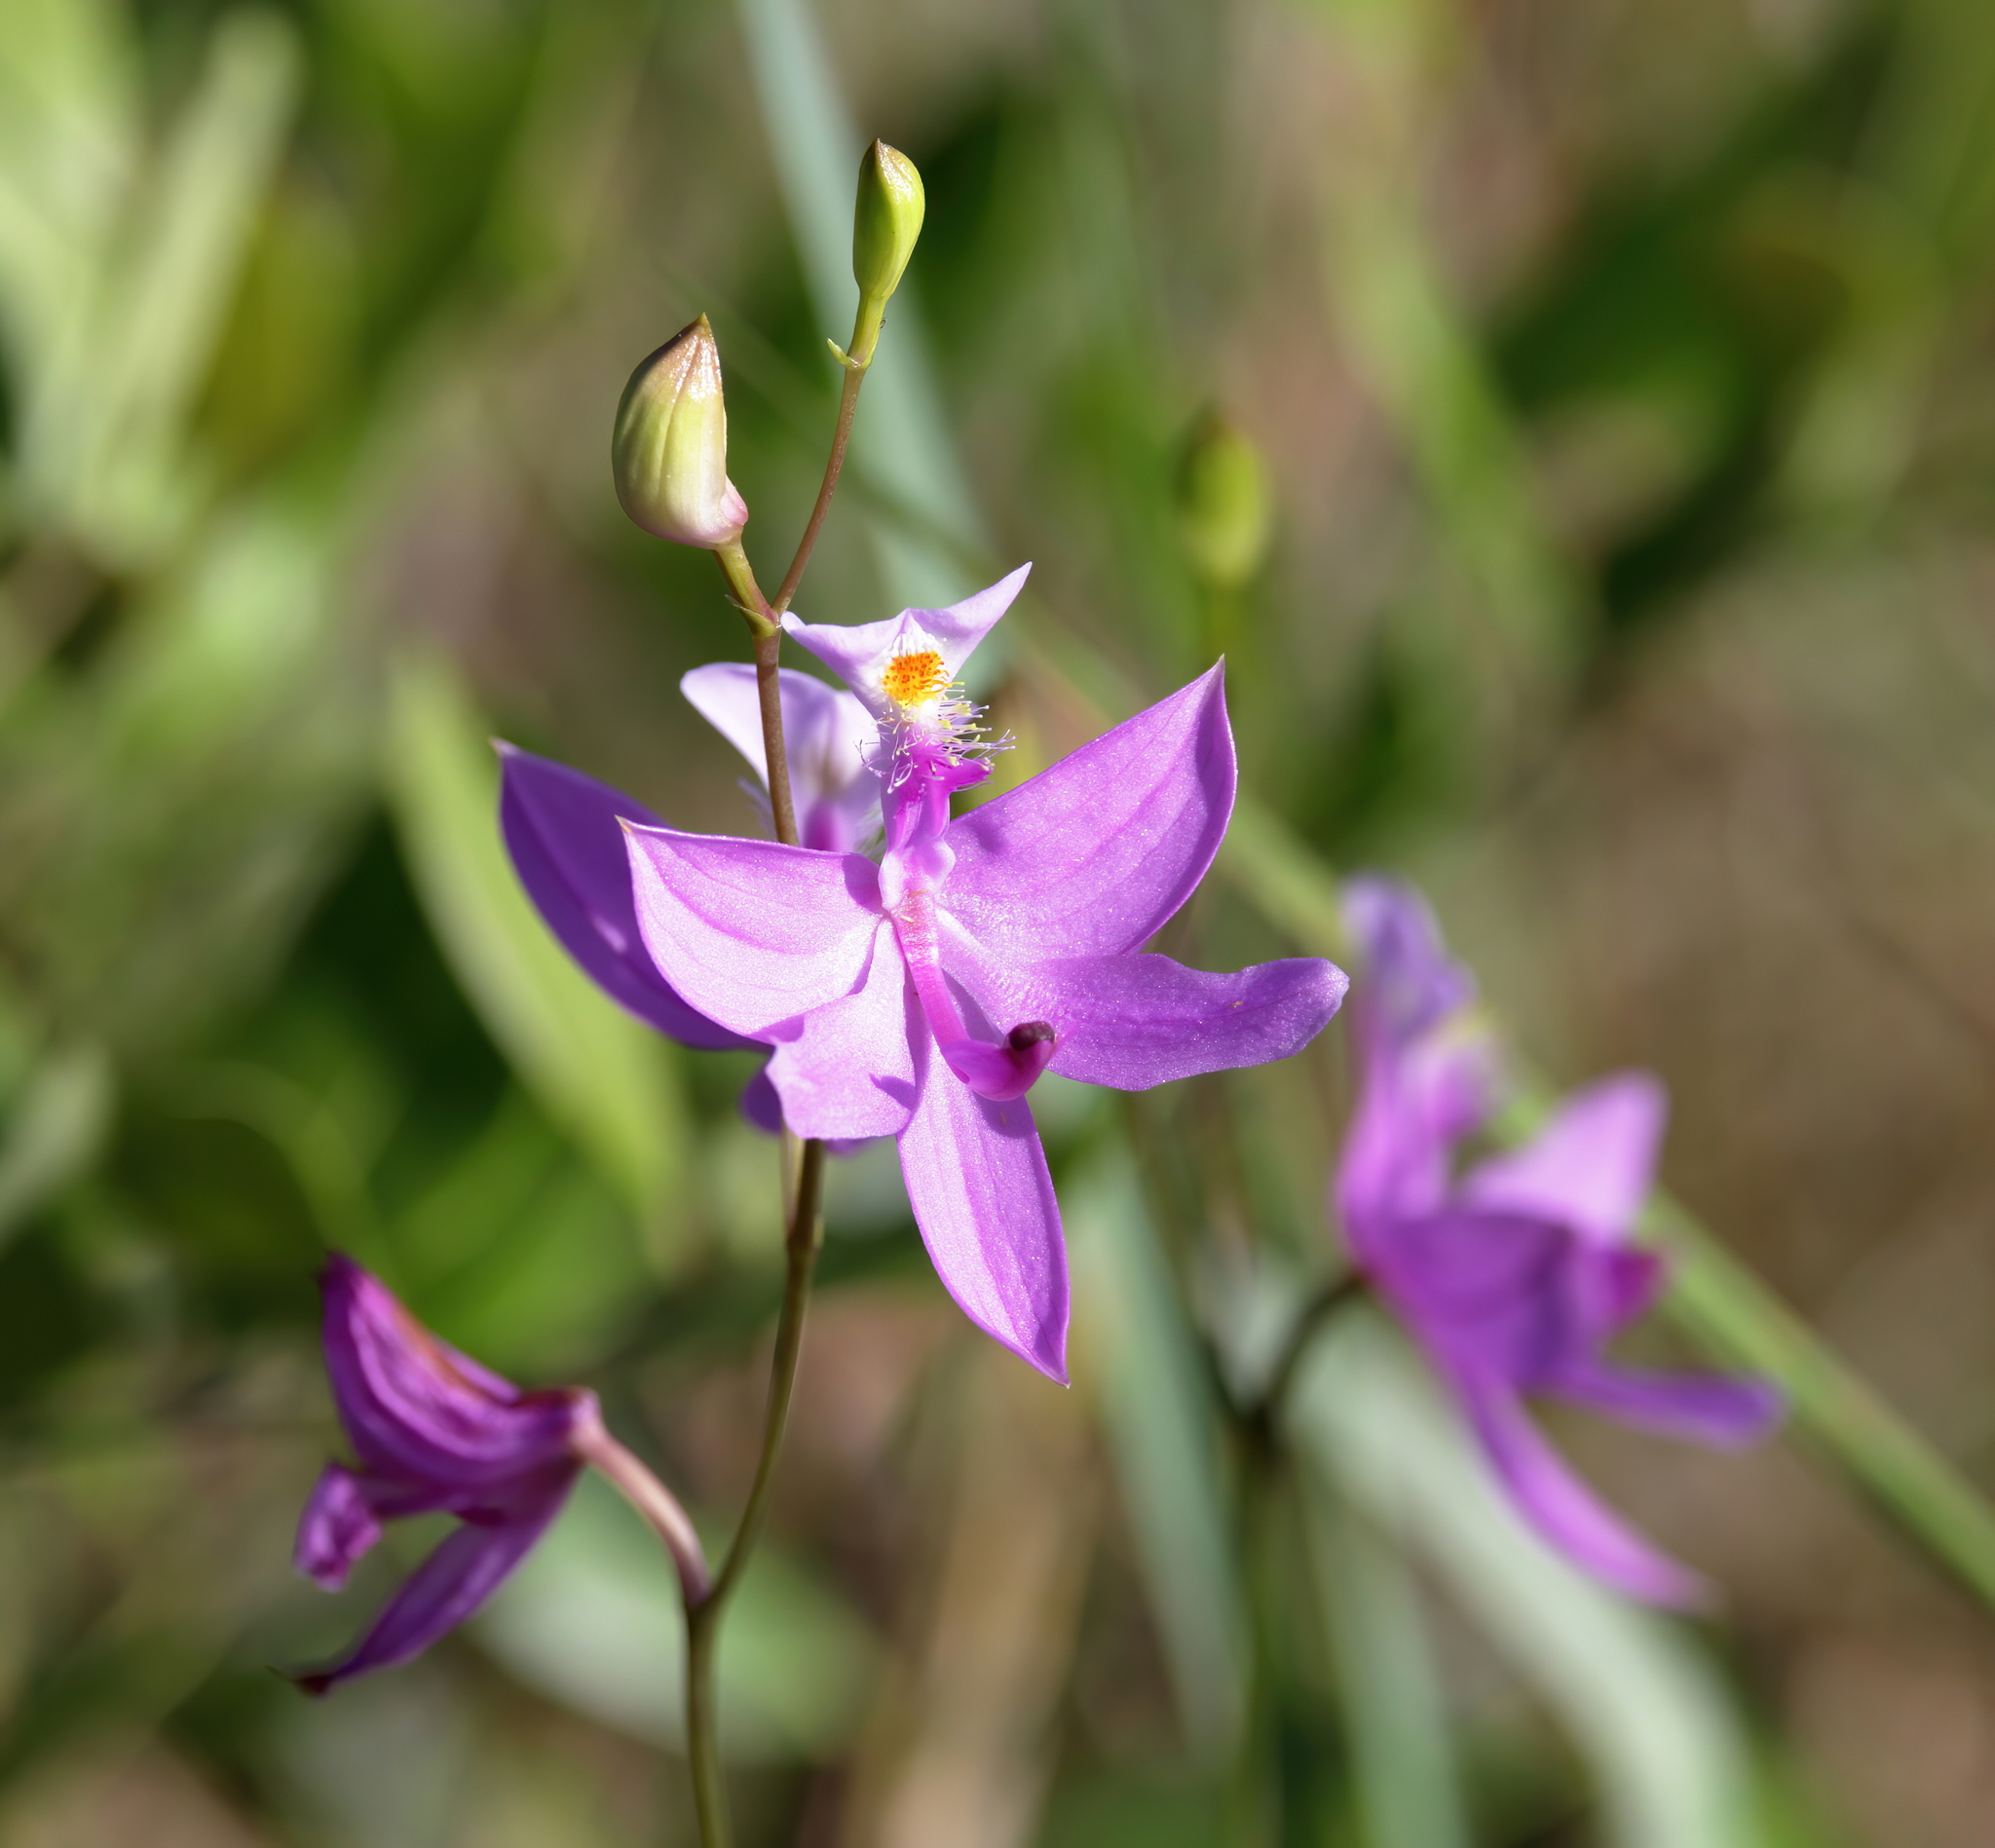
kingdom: Plantae
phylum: Tracheophyta
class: Liliopsida
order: Asparagales
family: Orchidaceae
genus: Calopogon
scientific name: Calopogon tuberosus
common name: Grass-pink
